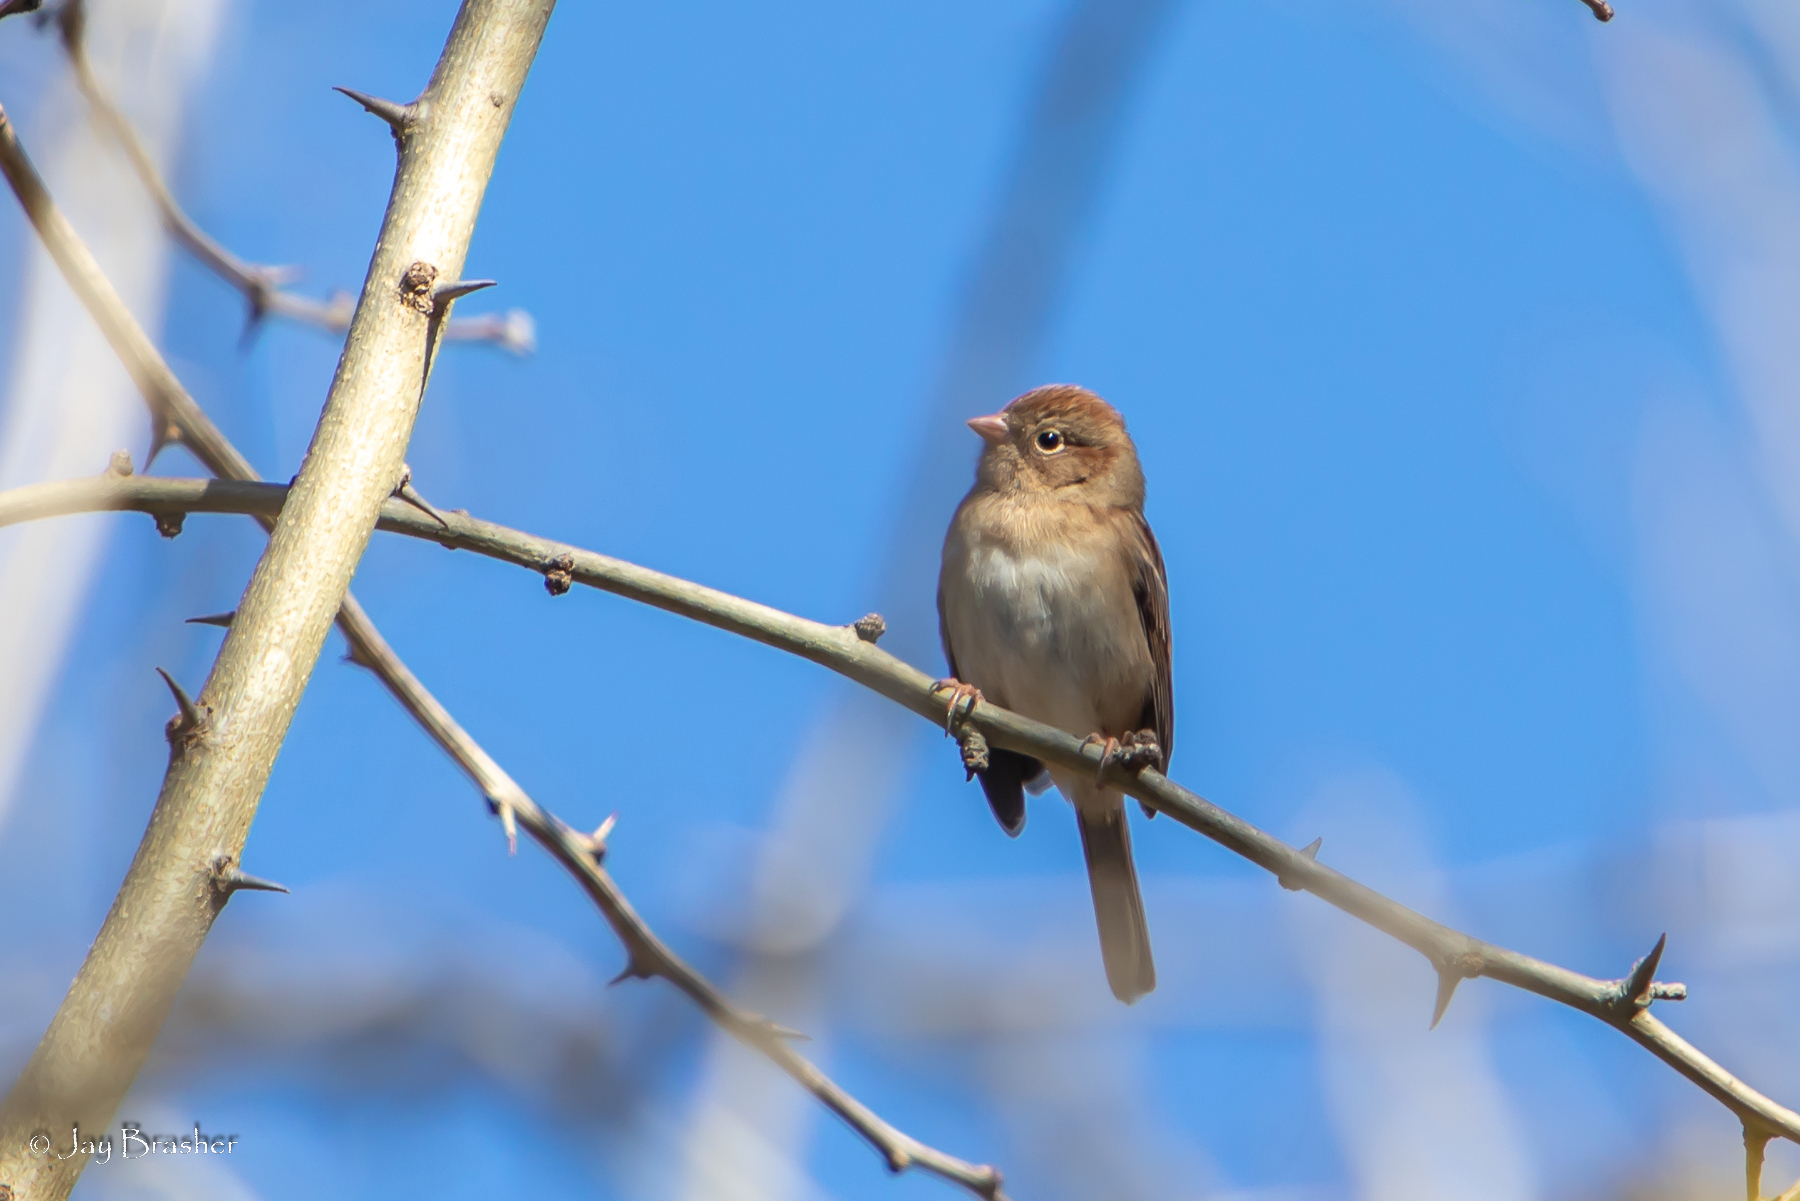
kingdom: Animalia
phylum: Chordata
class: Aves
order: Passeriformes
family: Passerellidae
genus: Spizella
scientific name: Spizella pusilla
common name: Field sparrow
